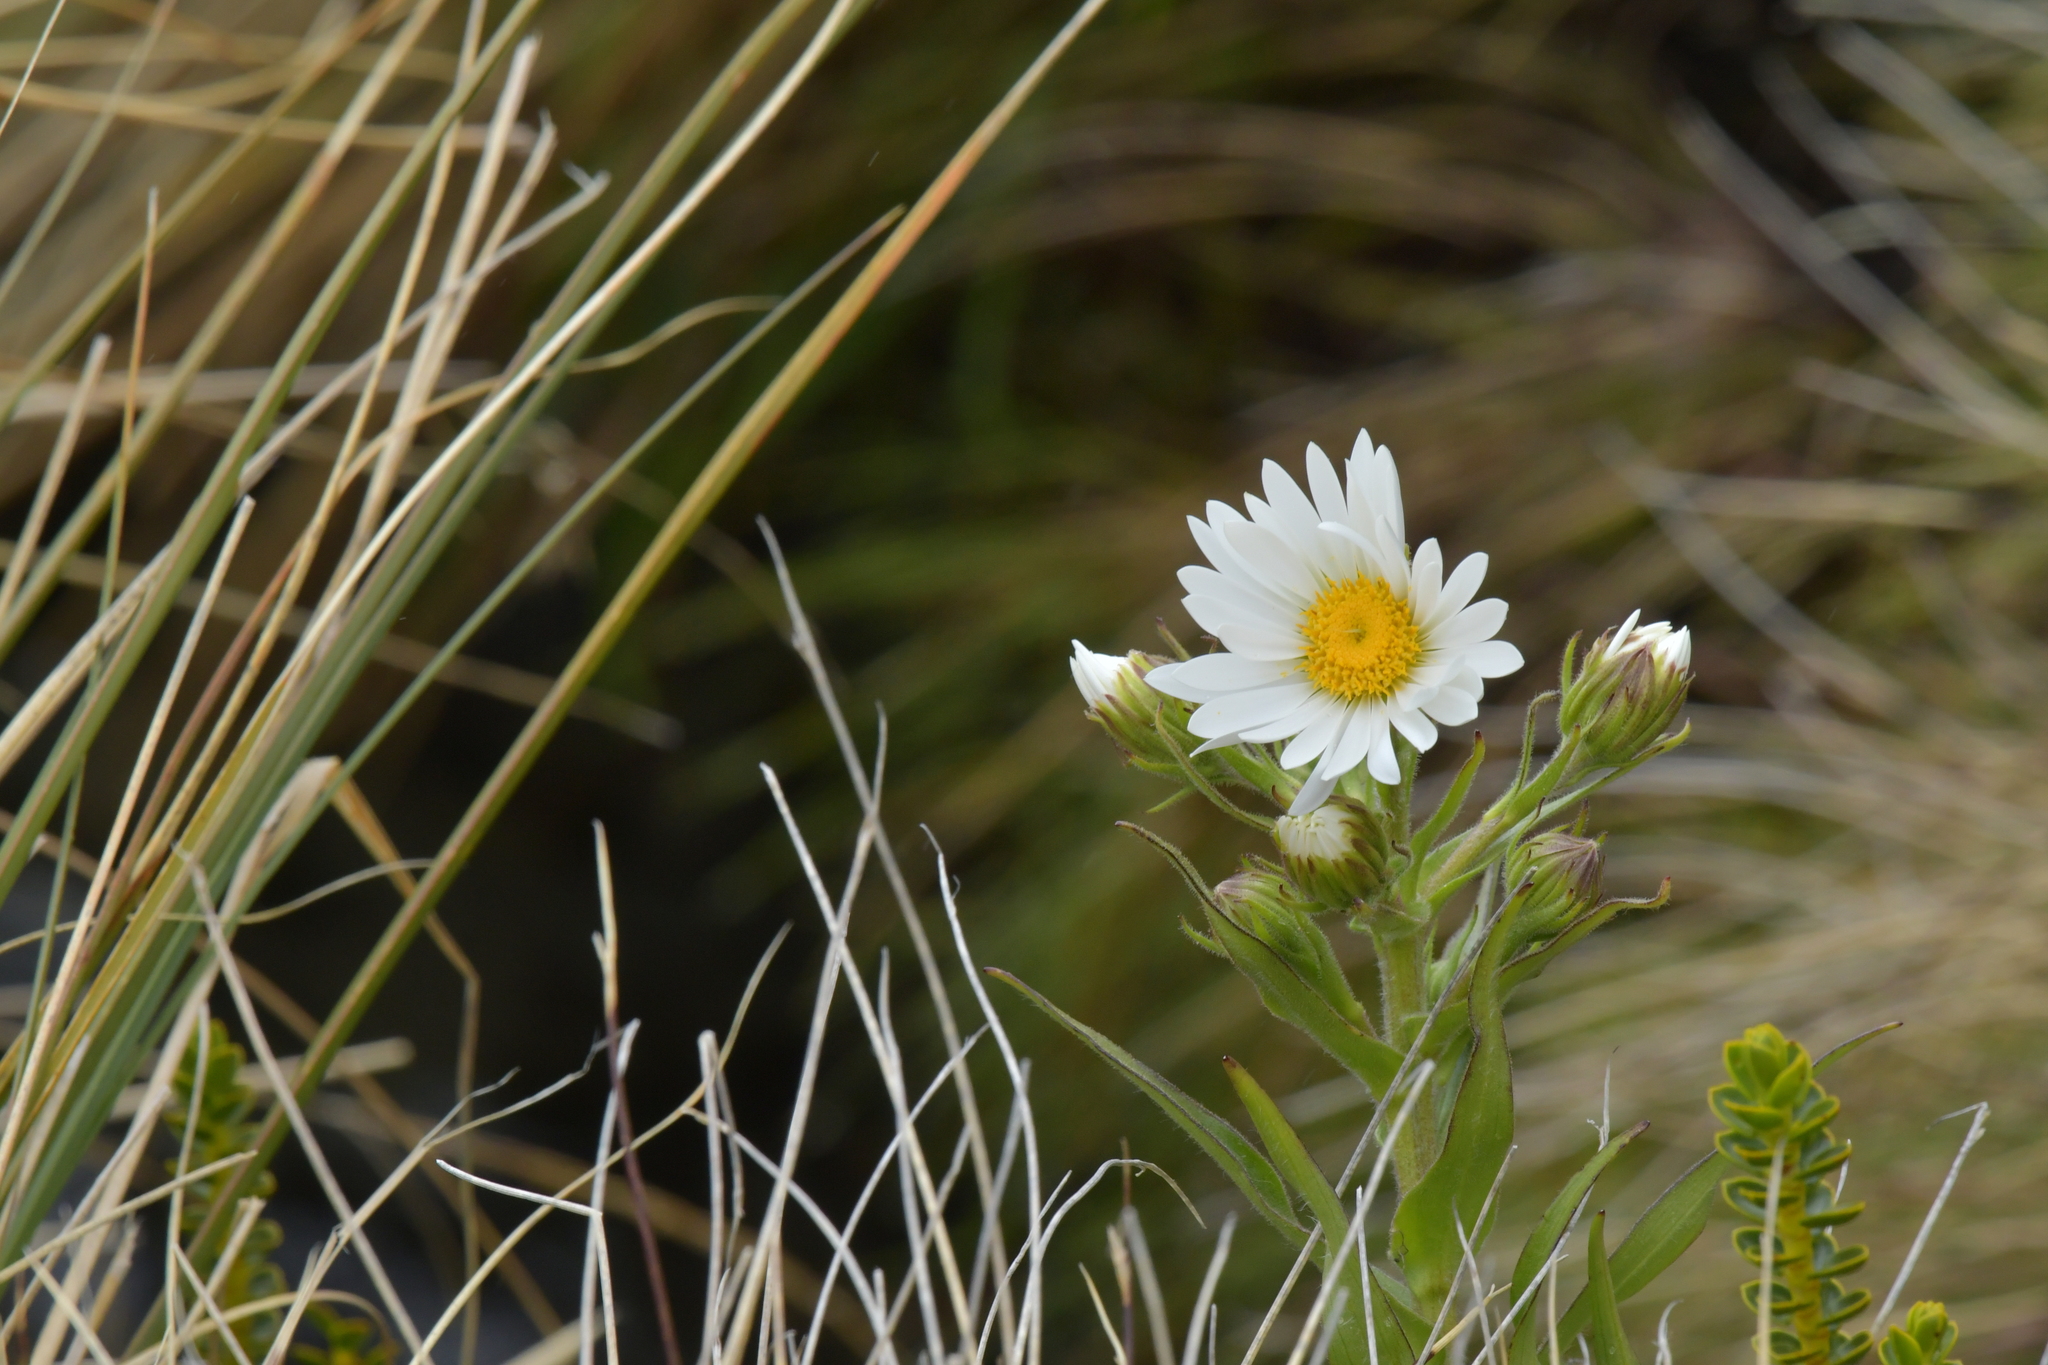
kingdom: Plantae
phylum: Tracheophyta
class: Magnoliopsida
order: Asterales
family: Asteraceae
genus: Dolichoglottis
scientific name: Dolichoglottis scorzoneroides
